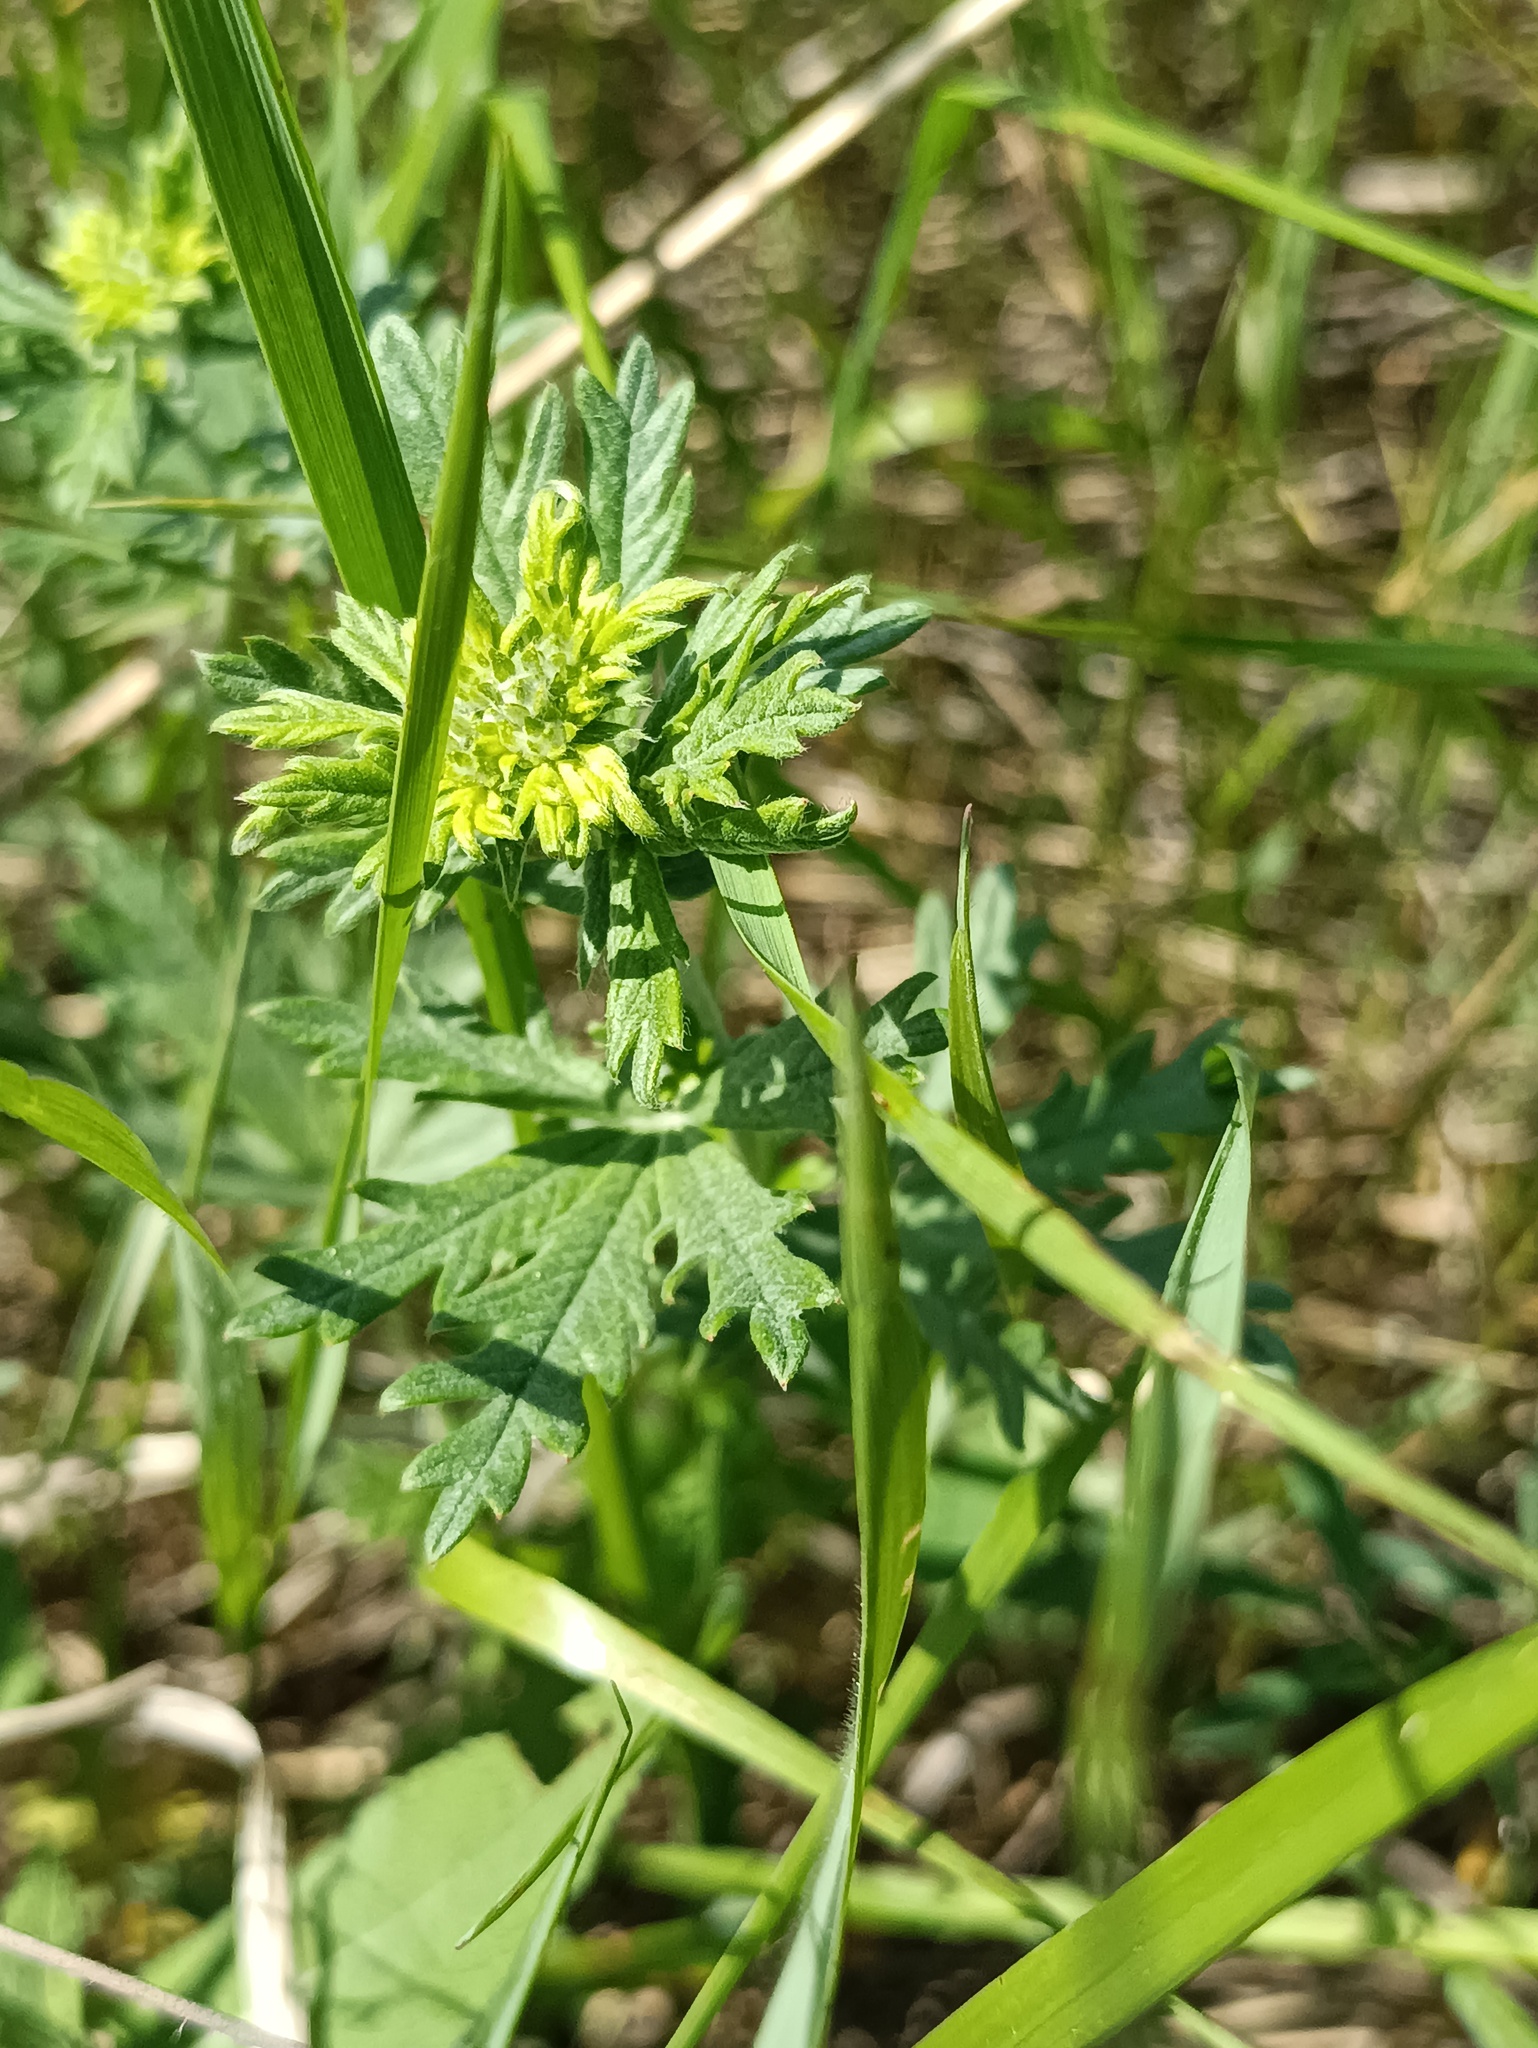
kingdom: Plantae
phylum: Tracheophyta
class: Magnoliopsida
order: Rosales
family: Rosaceae
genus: Potentilla
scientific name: Potentilla argentea
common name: Hoary cinquefoil
